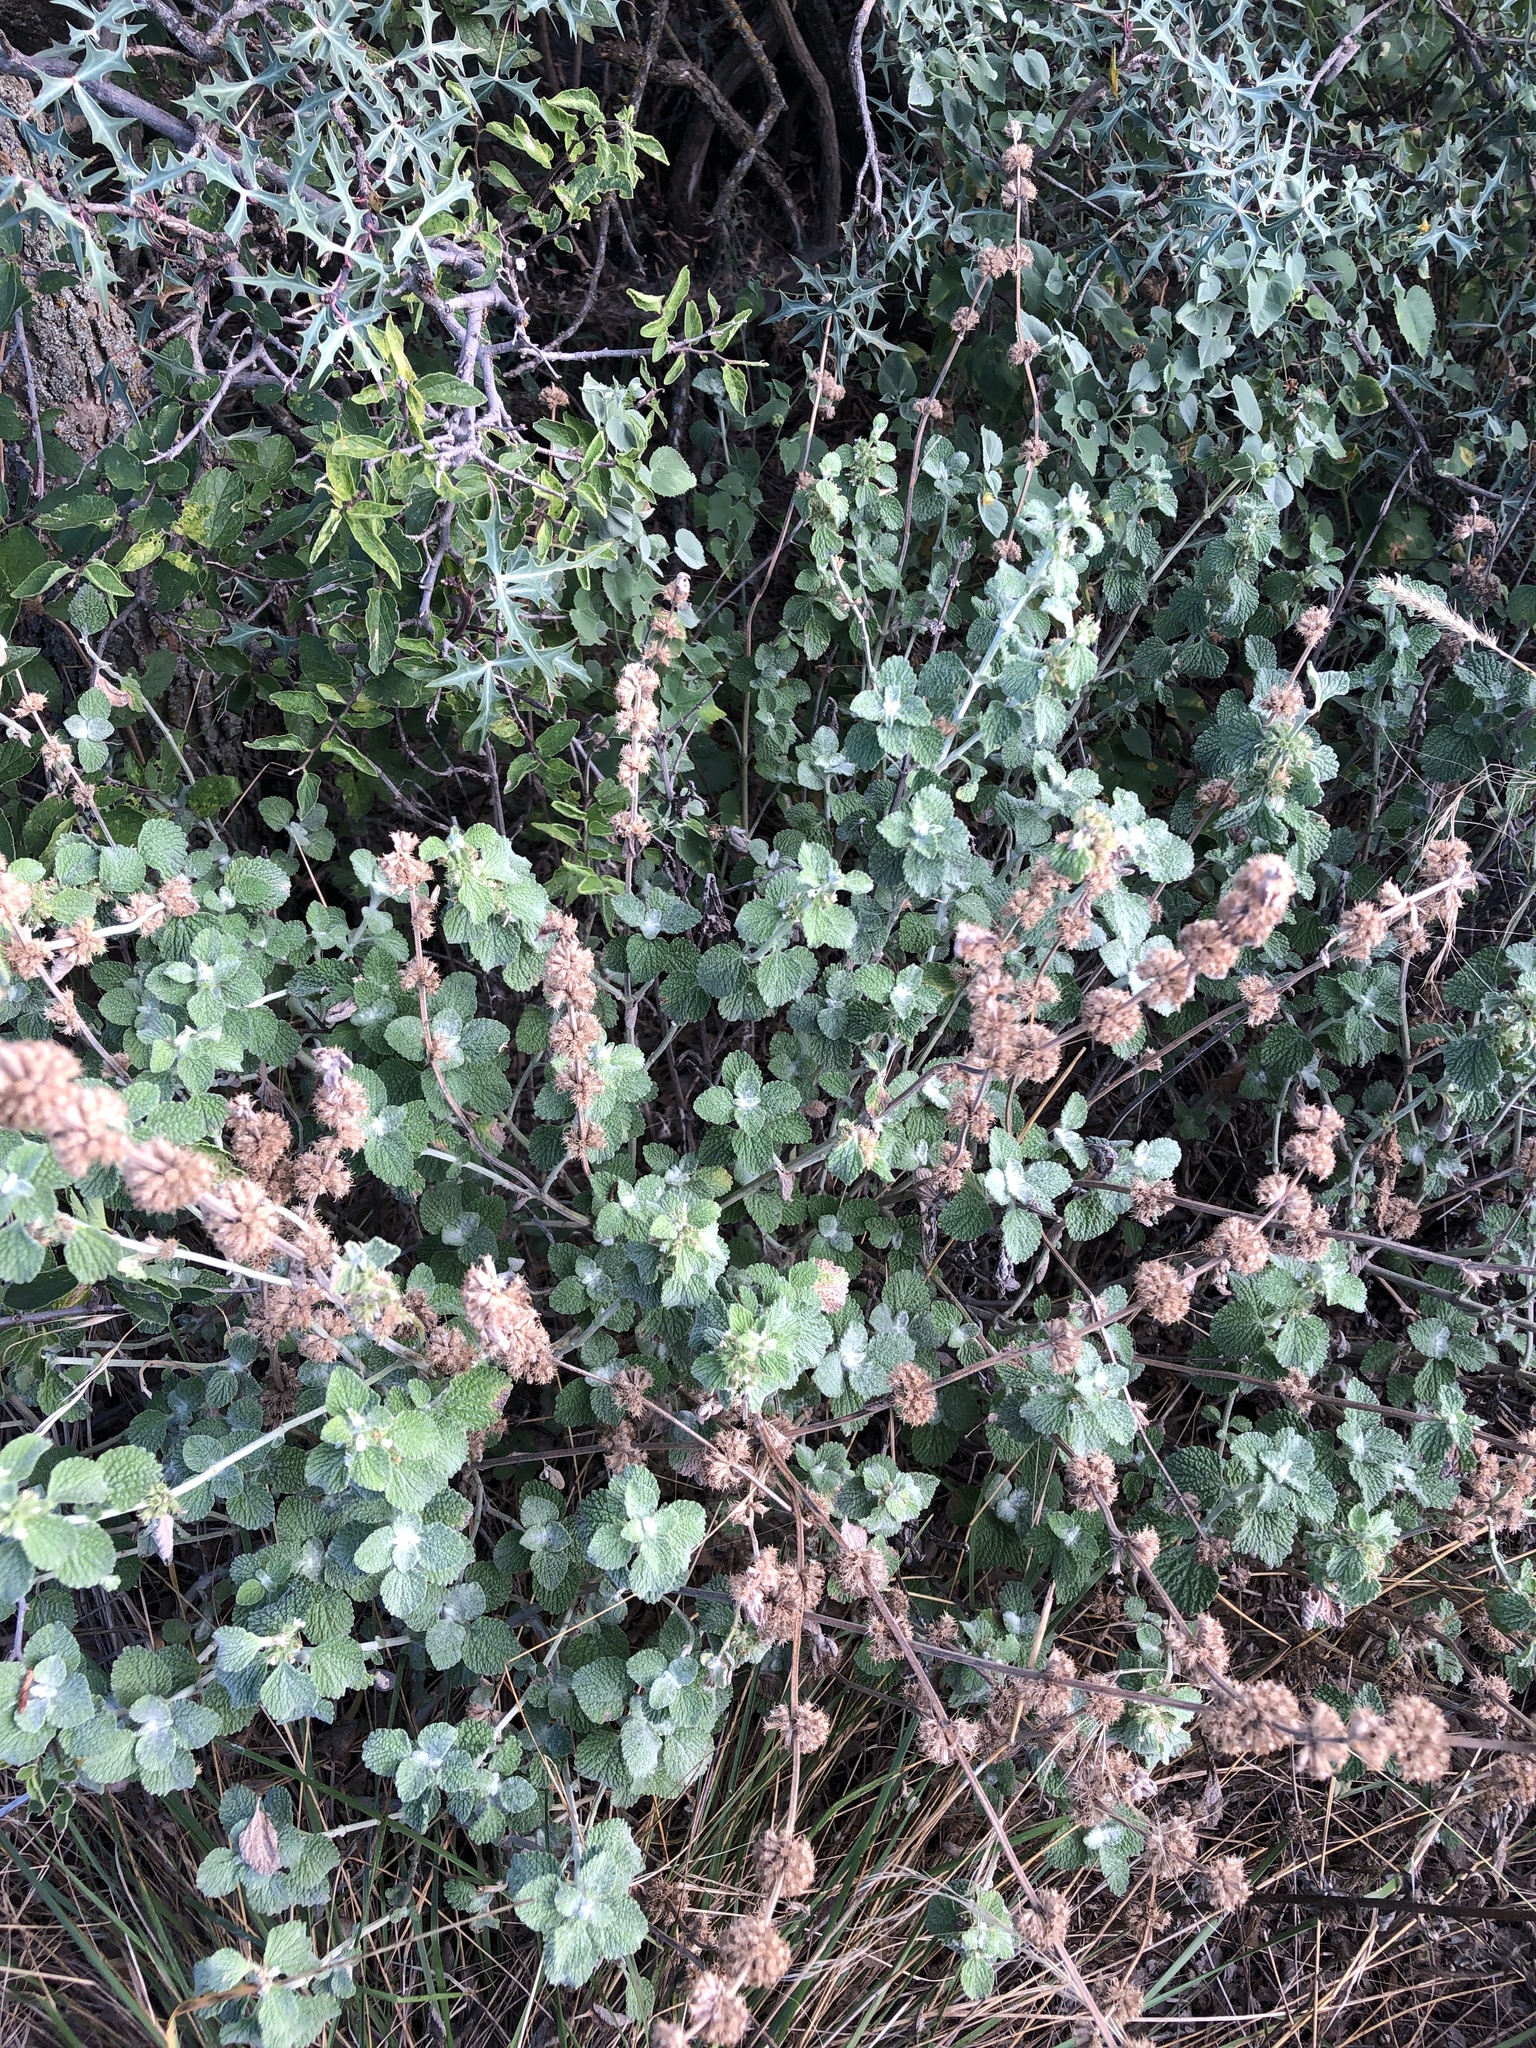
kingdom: Plantae
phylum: Tracheophyta
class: Magnoliopsida
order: Lamiales
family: Lamiaceae
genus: Marrubium
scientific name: Marrubium vulgare
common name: Horehound
